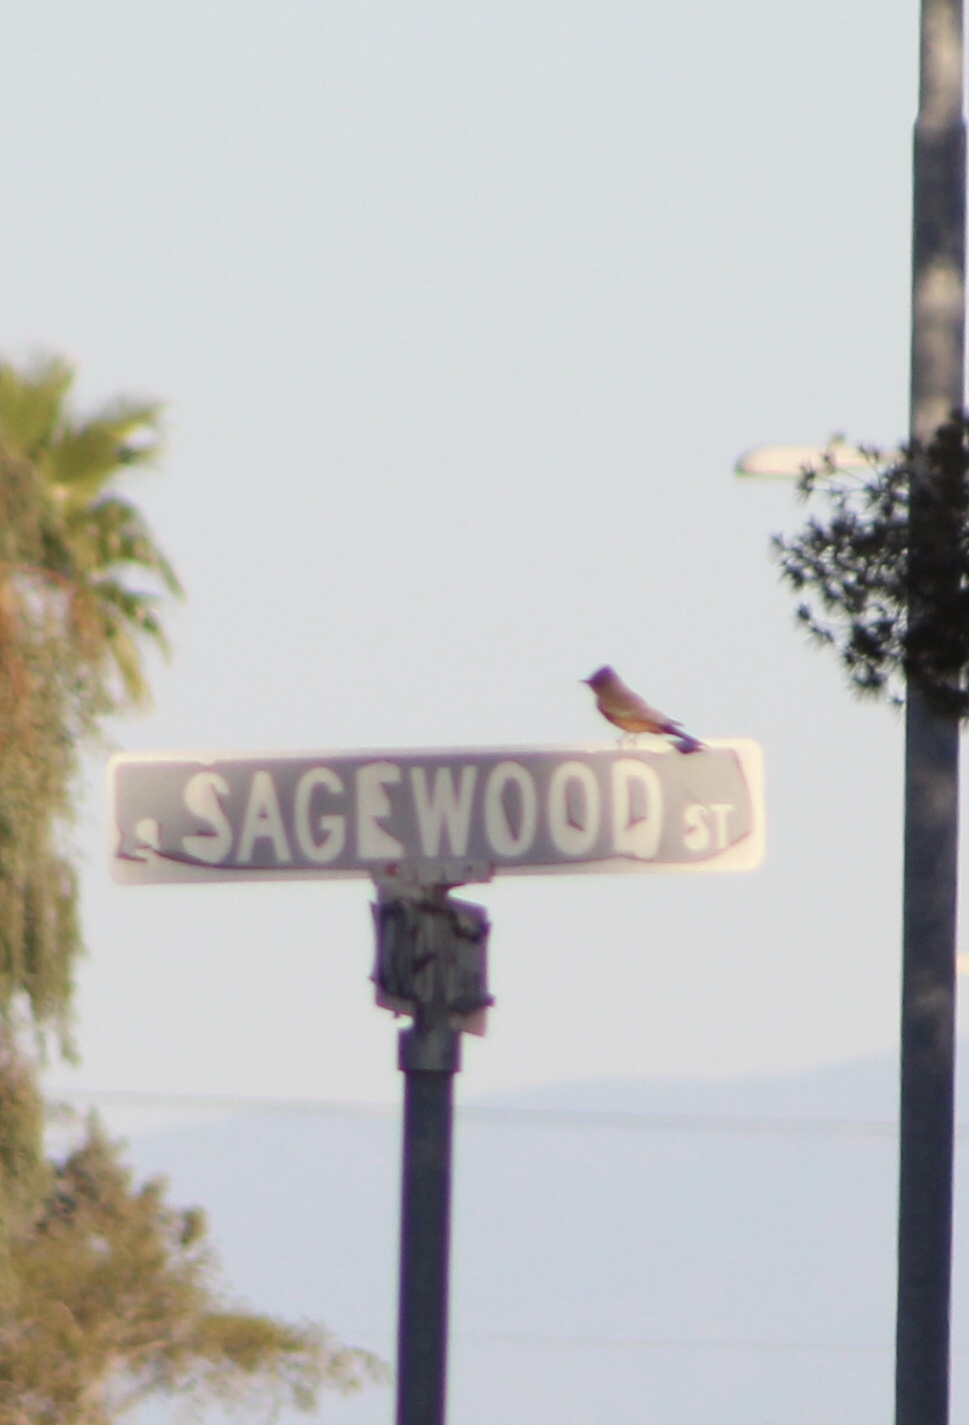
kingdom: Animalia
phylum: Chordata
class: Aves
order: Passeriformes
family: Tyrannidae
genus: Sayornis
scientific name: Sayornis saya
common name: Say's phoebe
